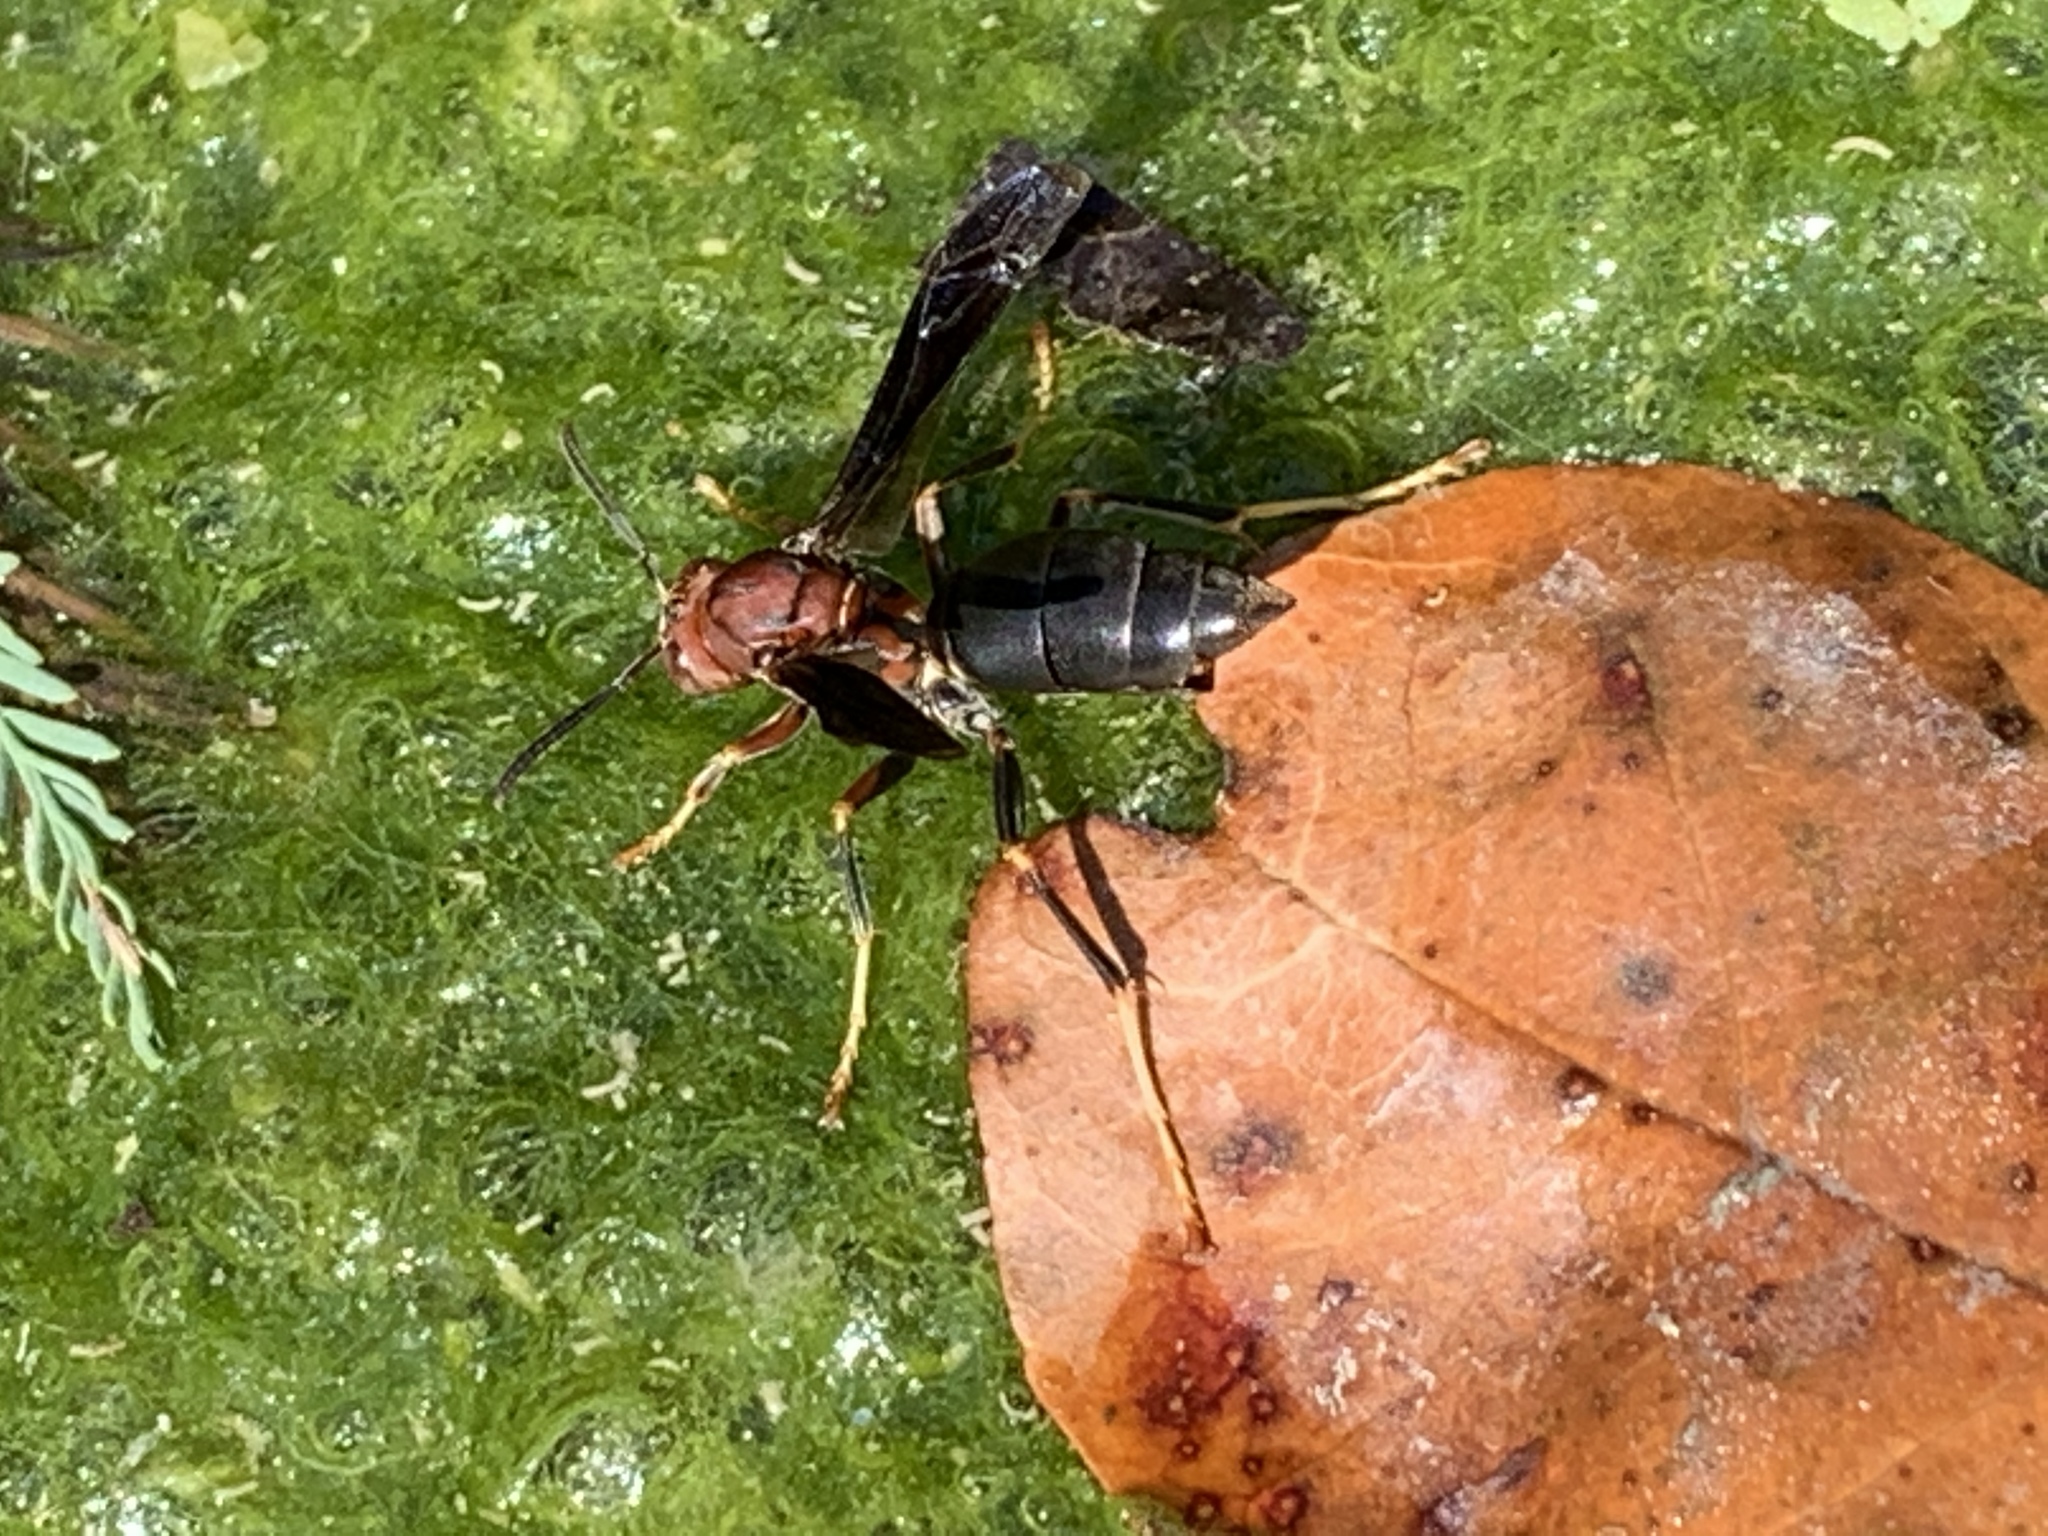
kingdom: Animalia
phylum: Arthropoda
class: Insecta
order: Hymenoptera
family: Eumenidae
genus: Polistes
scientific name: Polistes metricus
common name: Metric paper wasp
